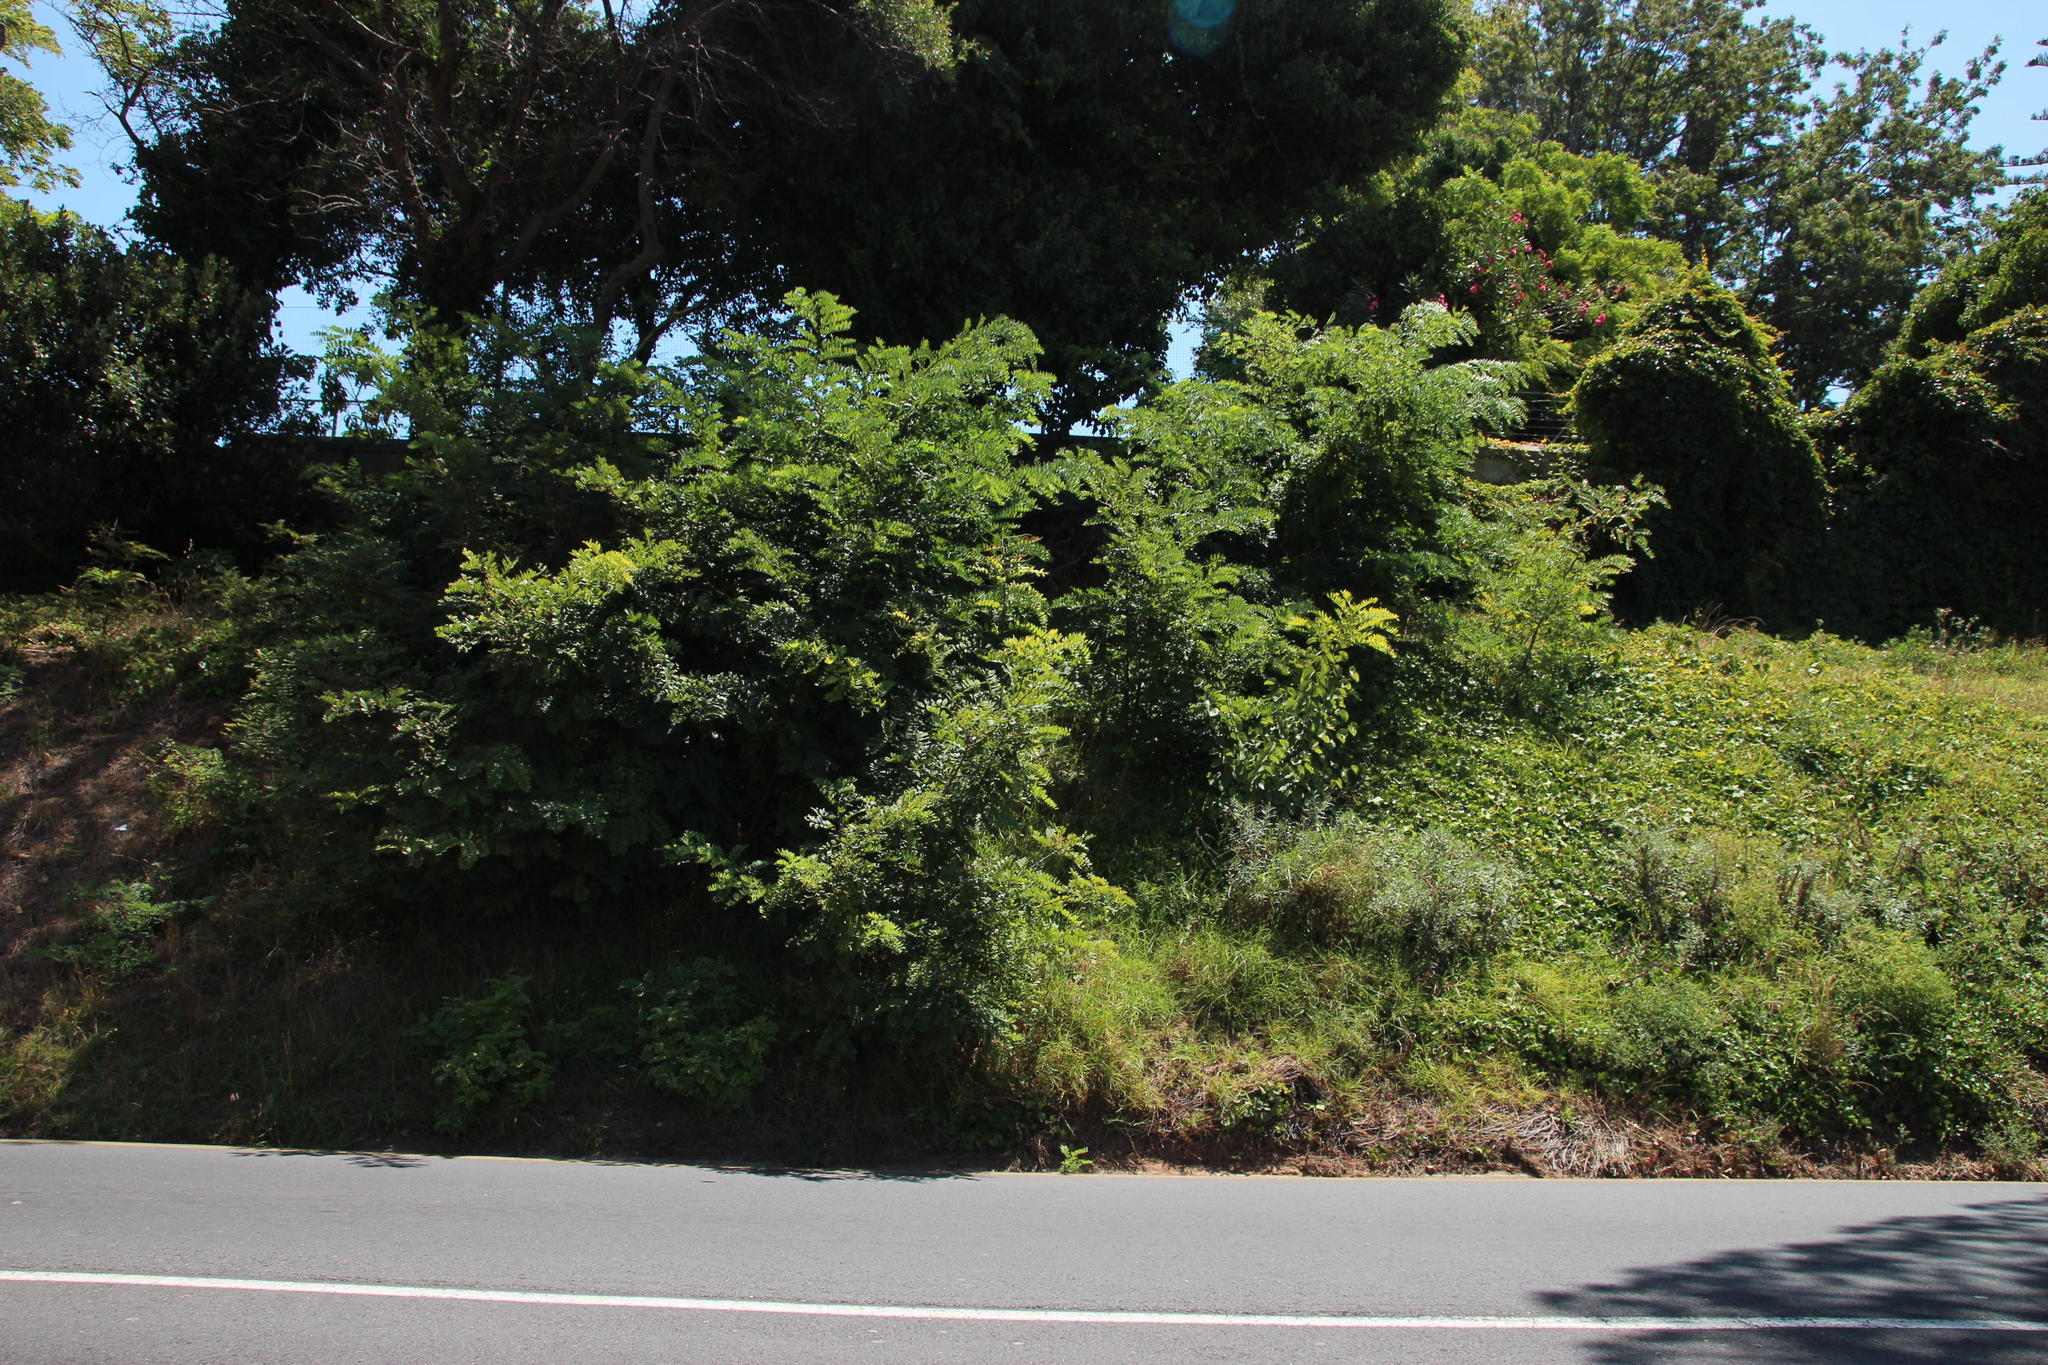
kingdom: Plantae
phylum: Tracheophyta
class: Magnoliopsida
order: Fabales
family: Fabaceae
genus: Robinia
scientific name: Robinia pseudoacacia
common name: Black locust
